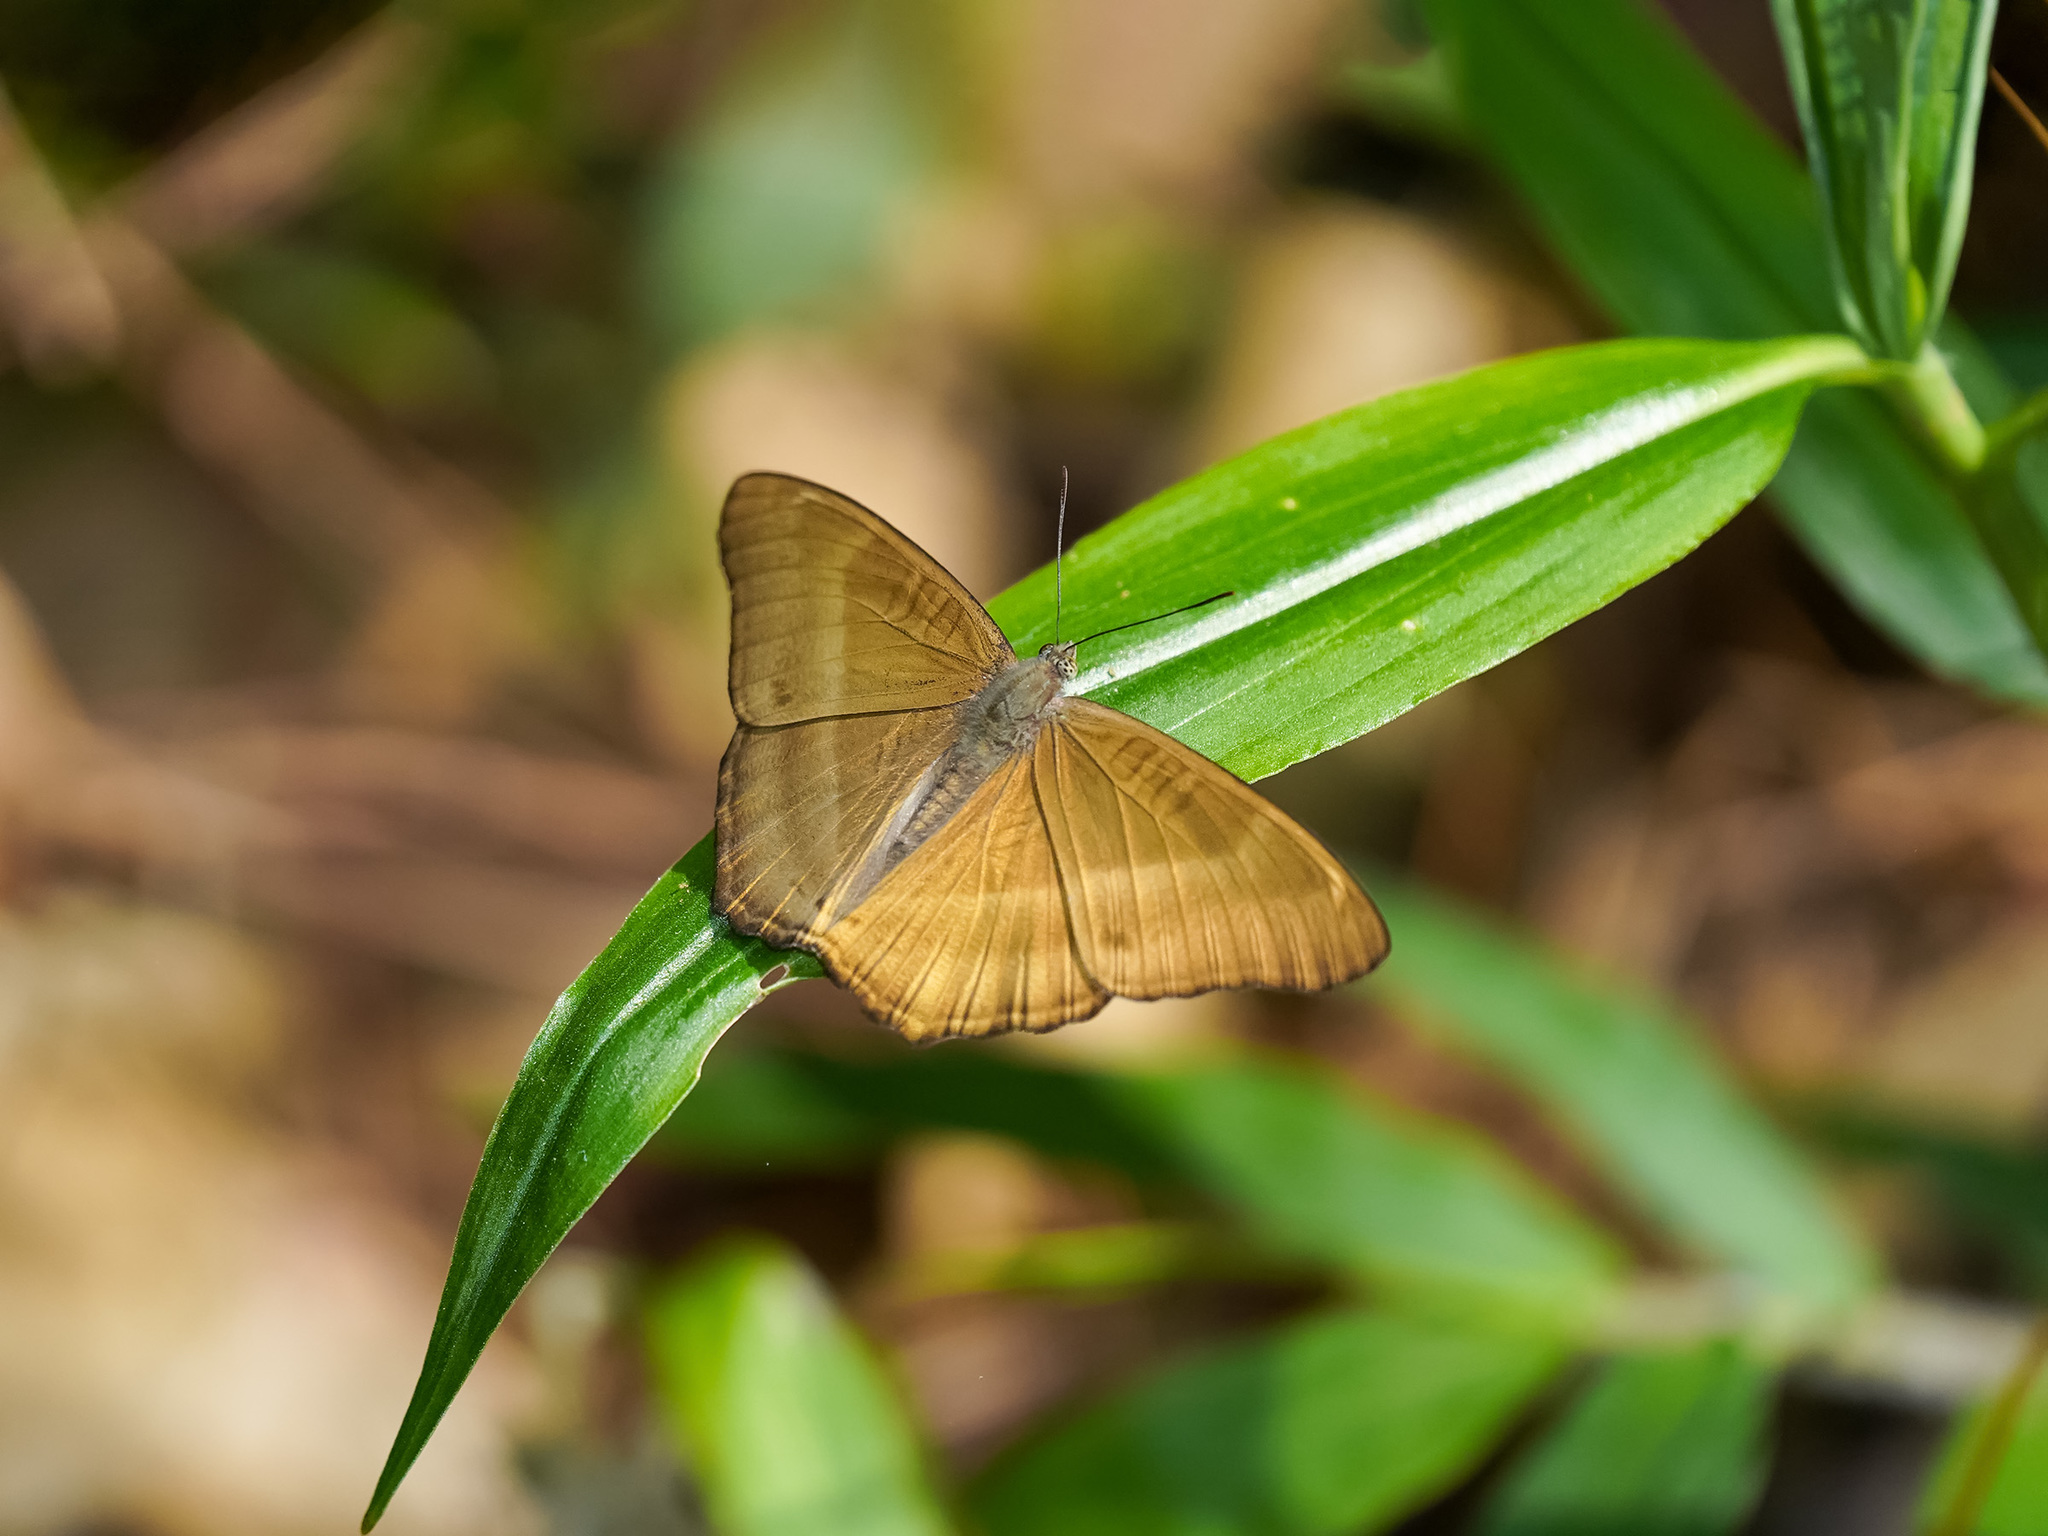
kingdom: Animalia
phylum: Arthropoda
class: Insecta
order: Lepidoptera
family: Nymphalidae
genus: Limenitis
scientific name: Limenitis Bhagadatta austenia
